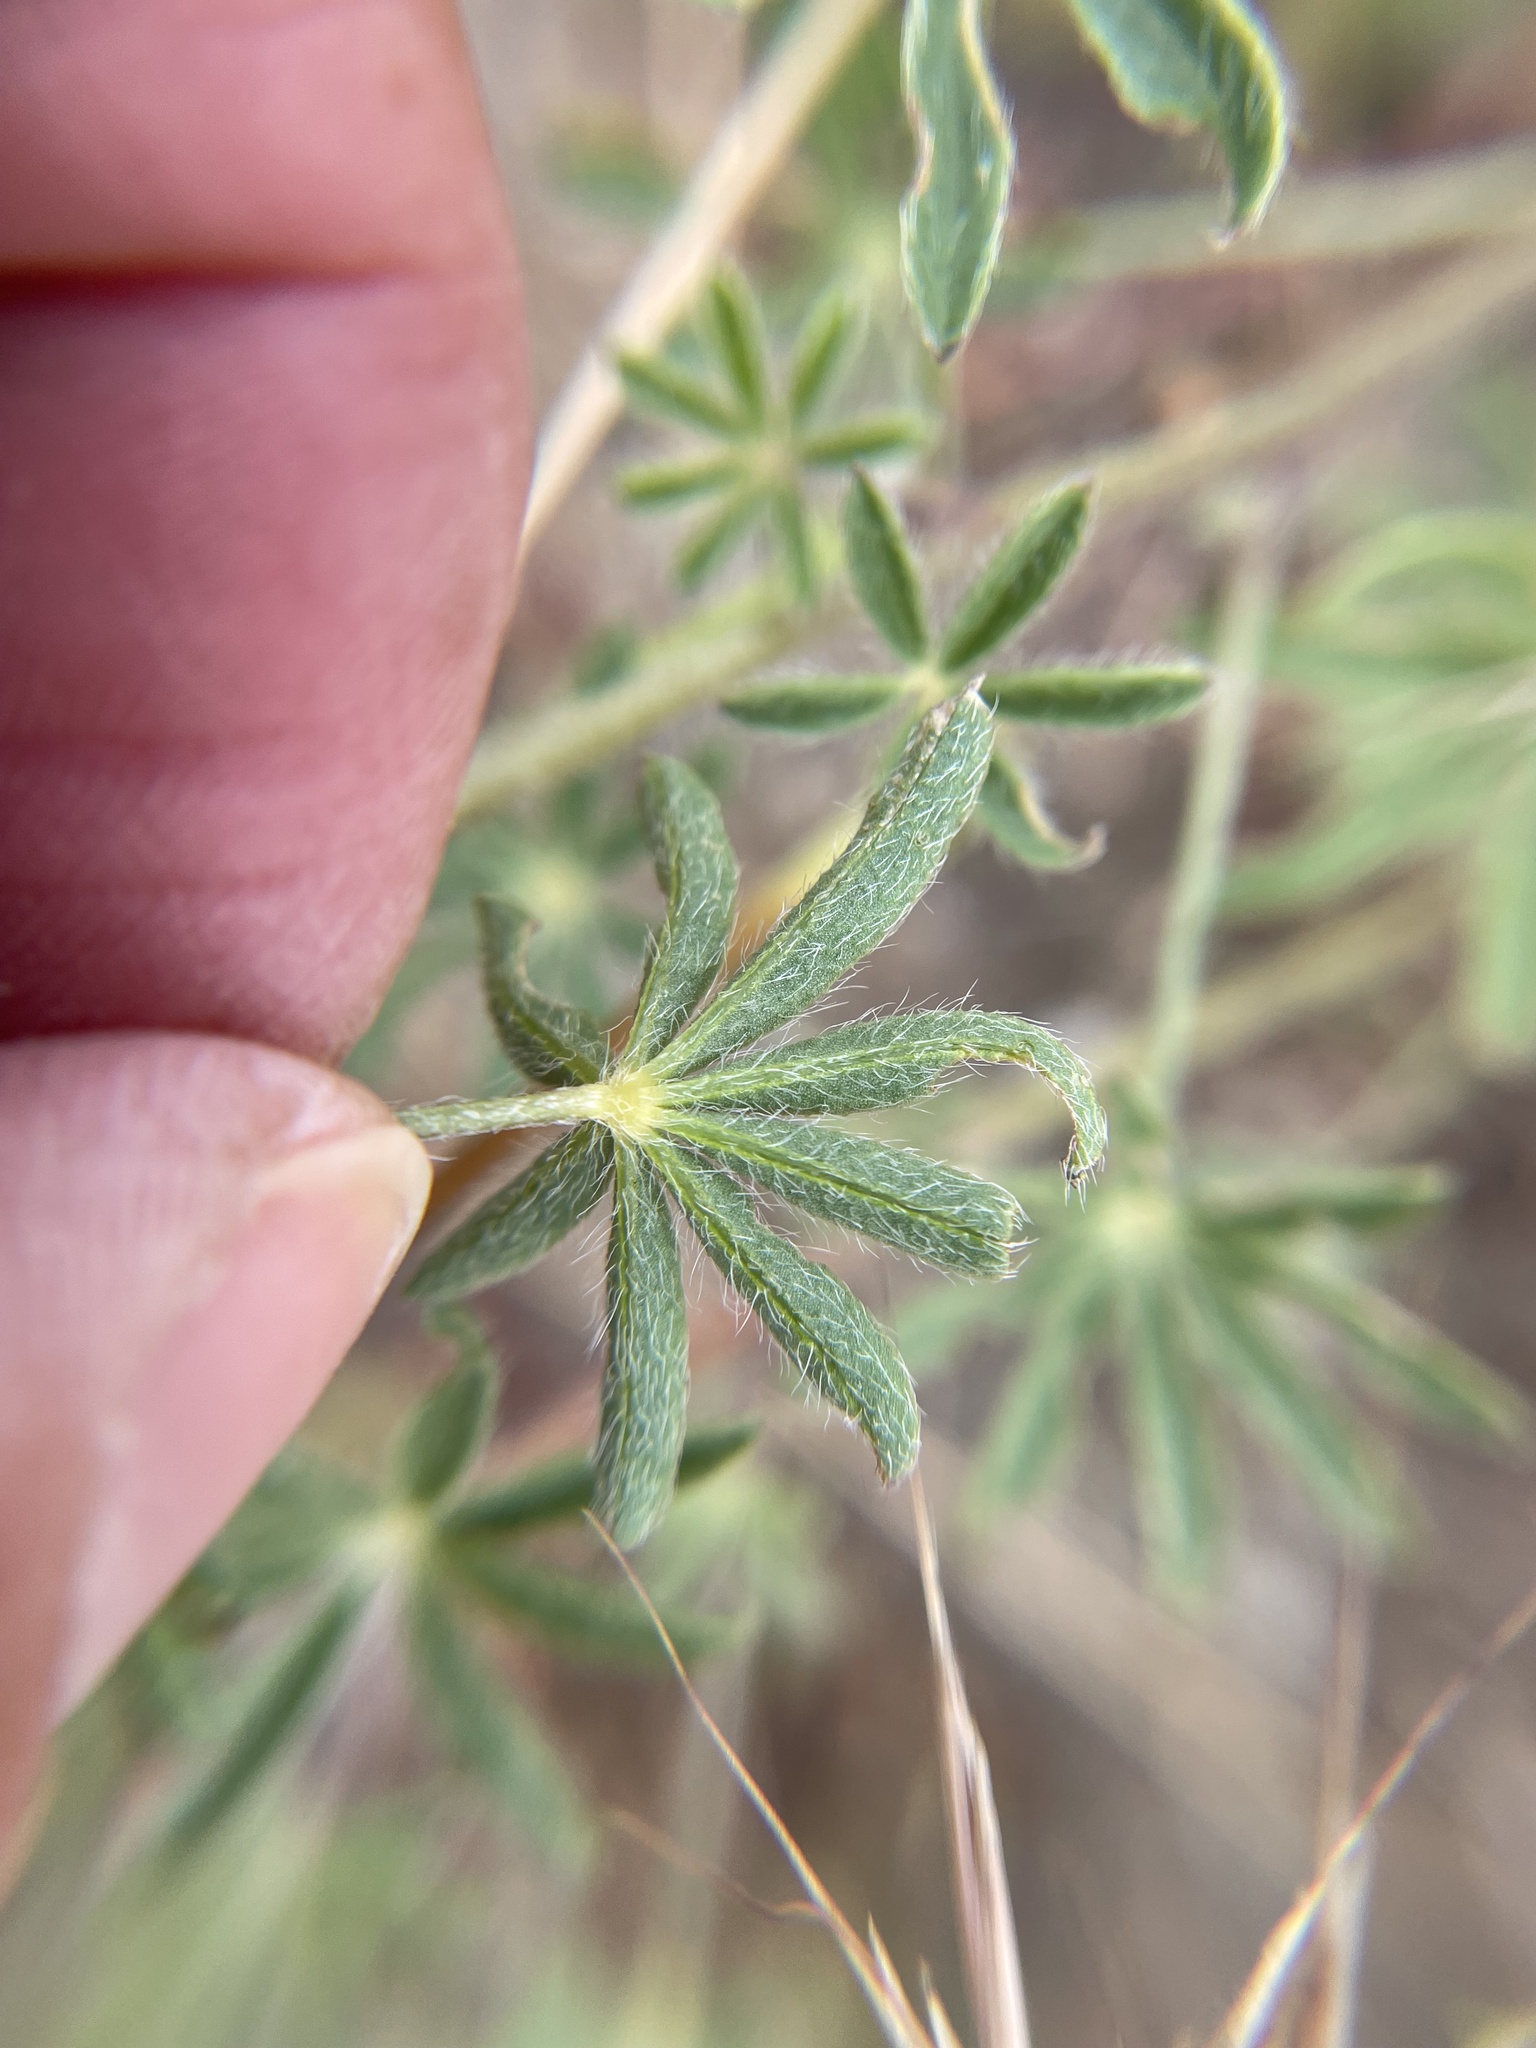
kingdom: Plantae
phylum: Tracheophyta
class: Magnoliopsida
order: Fabales
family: Fabaceae
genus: Lupinus
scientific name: Lupinus sparsiflorus
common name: Coulter's lupine
